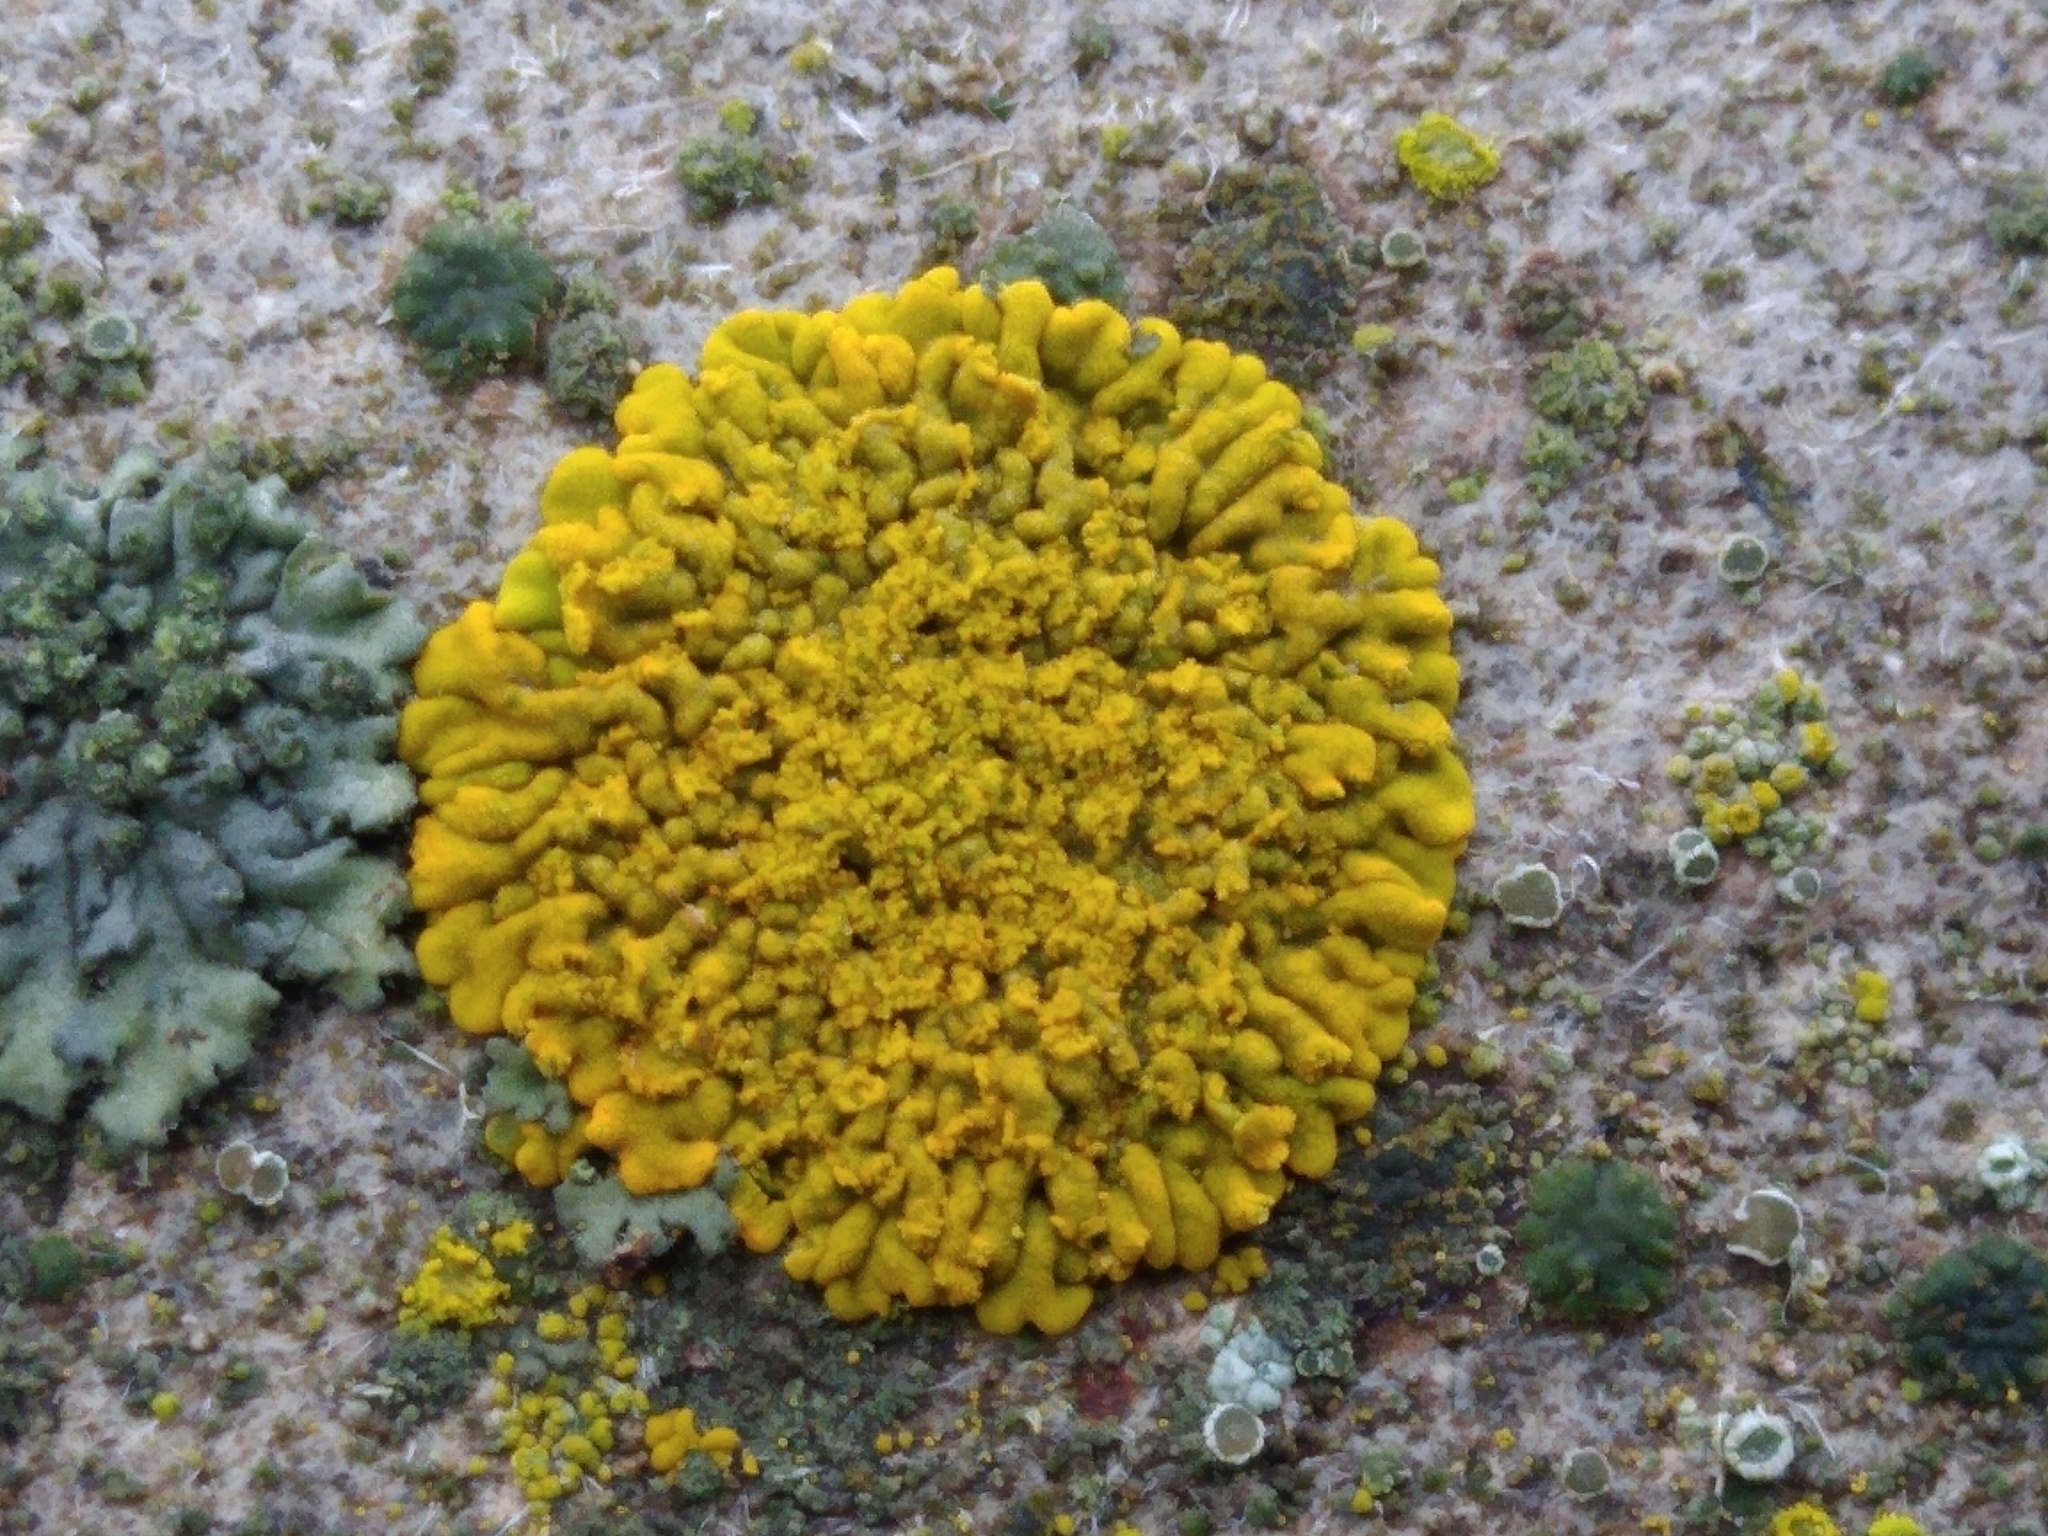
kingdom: Fungi
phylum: Ascomycota
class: Lecanoromycetes
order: Teloschistales
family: Teloschistaceae
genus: Calogaya
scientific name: Calogaya decipiens
